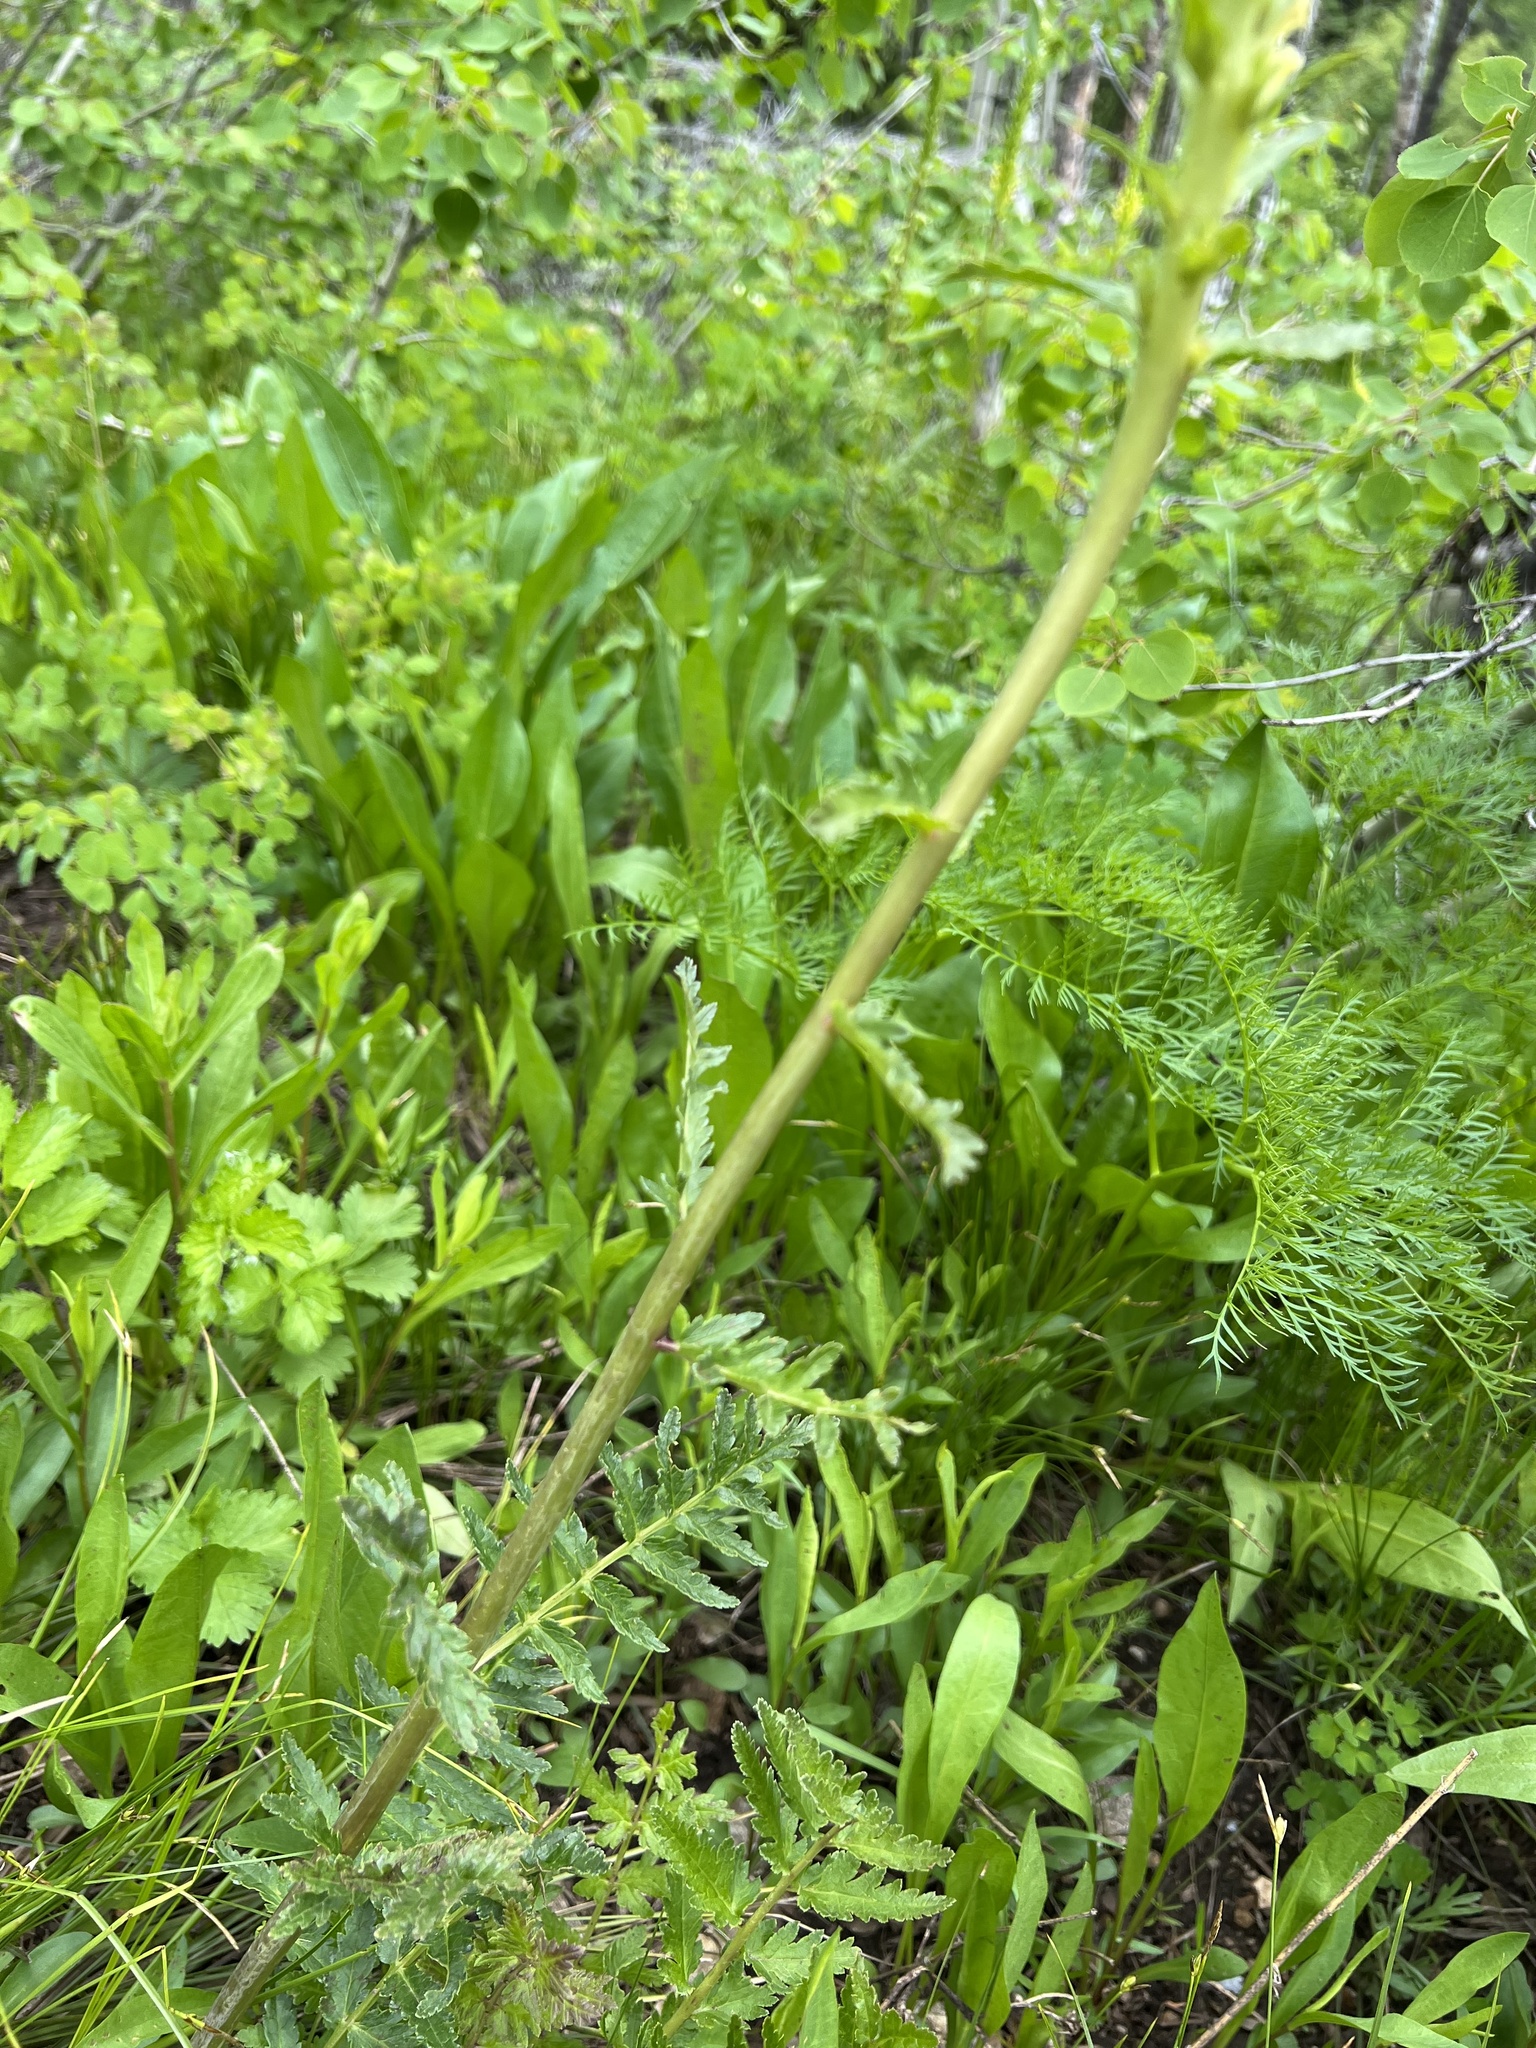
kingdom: Plantae
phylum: Tracheophyta
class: Magnoliopsida
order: Lamiales
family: Orobanchaceae
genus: Pedicularis
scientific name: Pedicularis bracteosa
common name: Bracted lousewort
